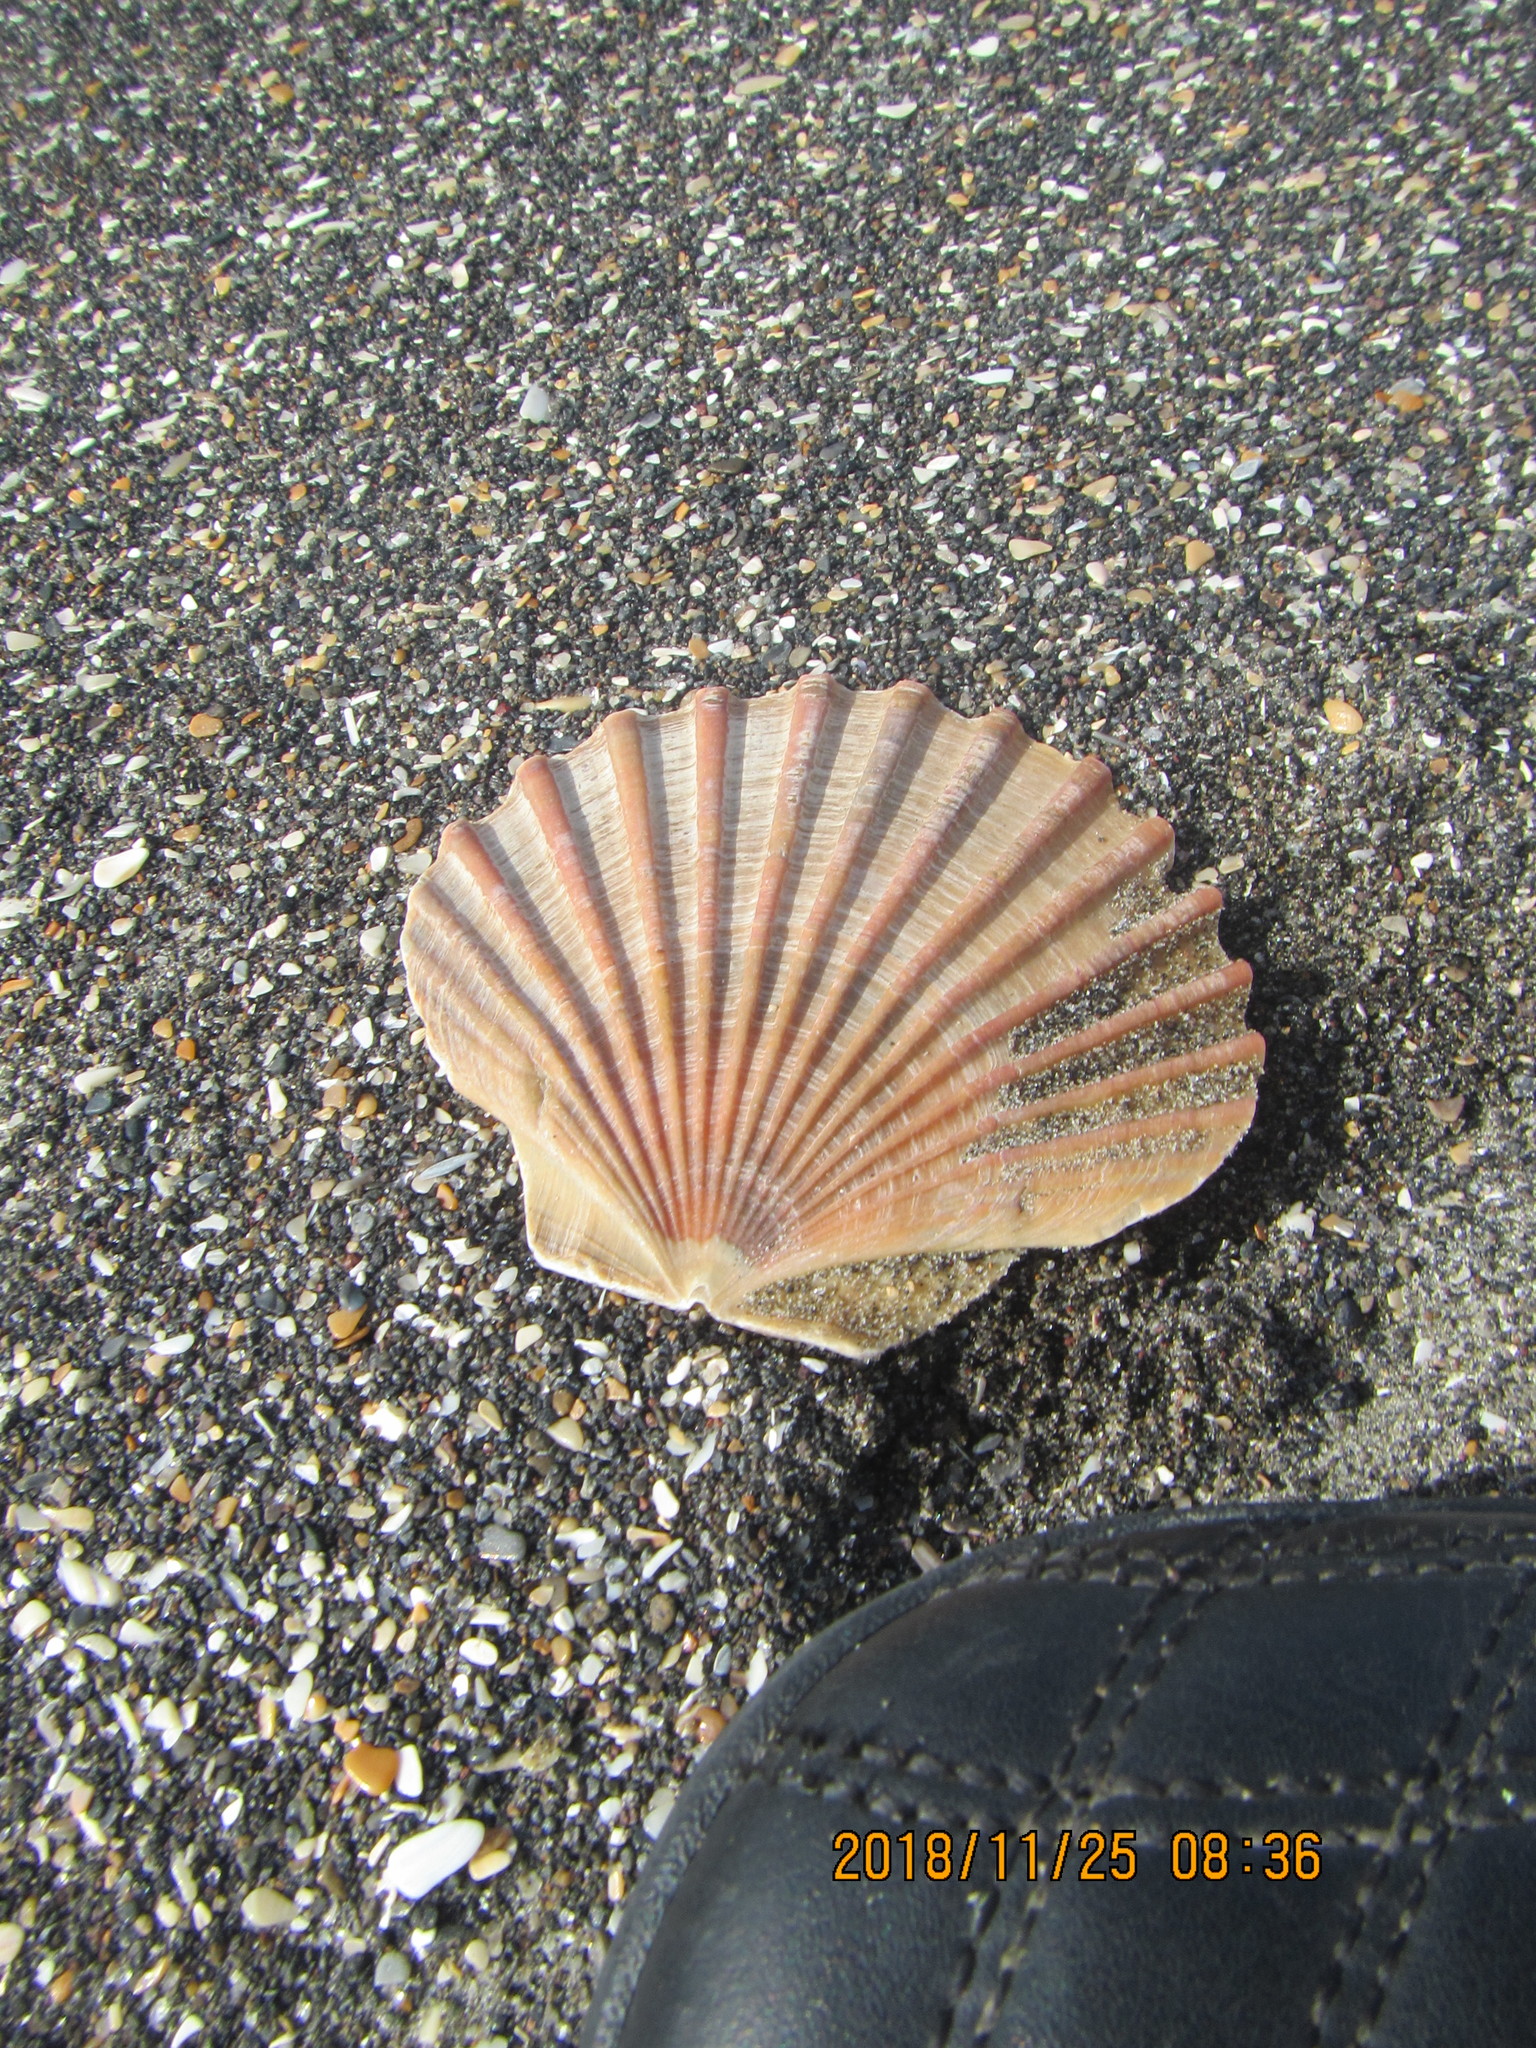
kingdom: Animalia
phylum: Mollusca
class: Bivalvia
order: Pectinida
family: Pectinidae
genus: Pecten
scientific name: Pecten novaezelandiae
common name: New zealand scallop
